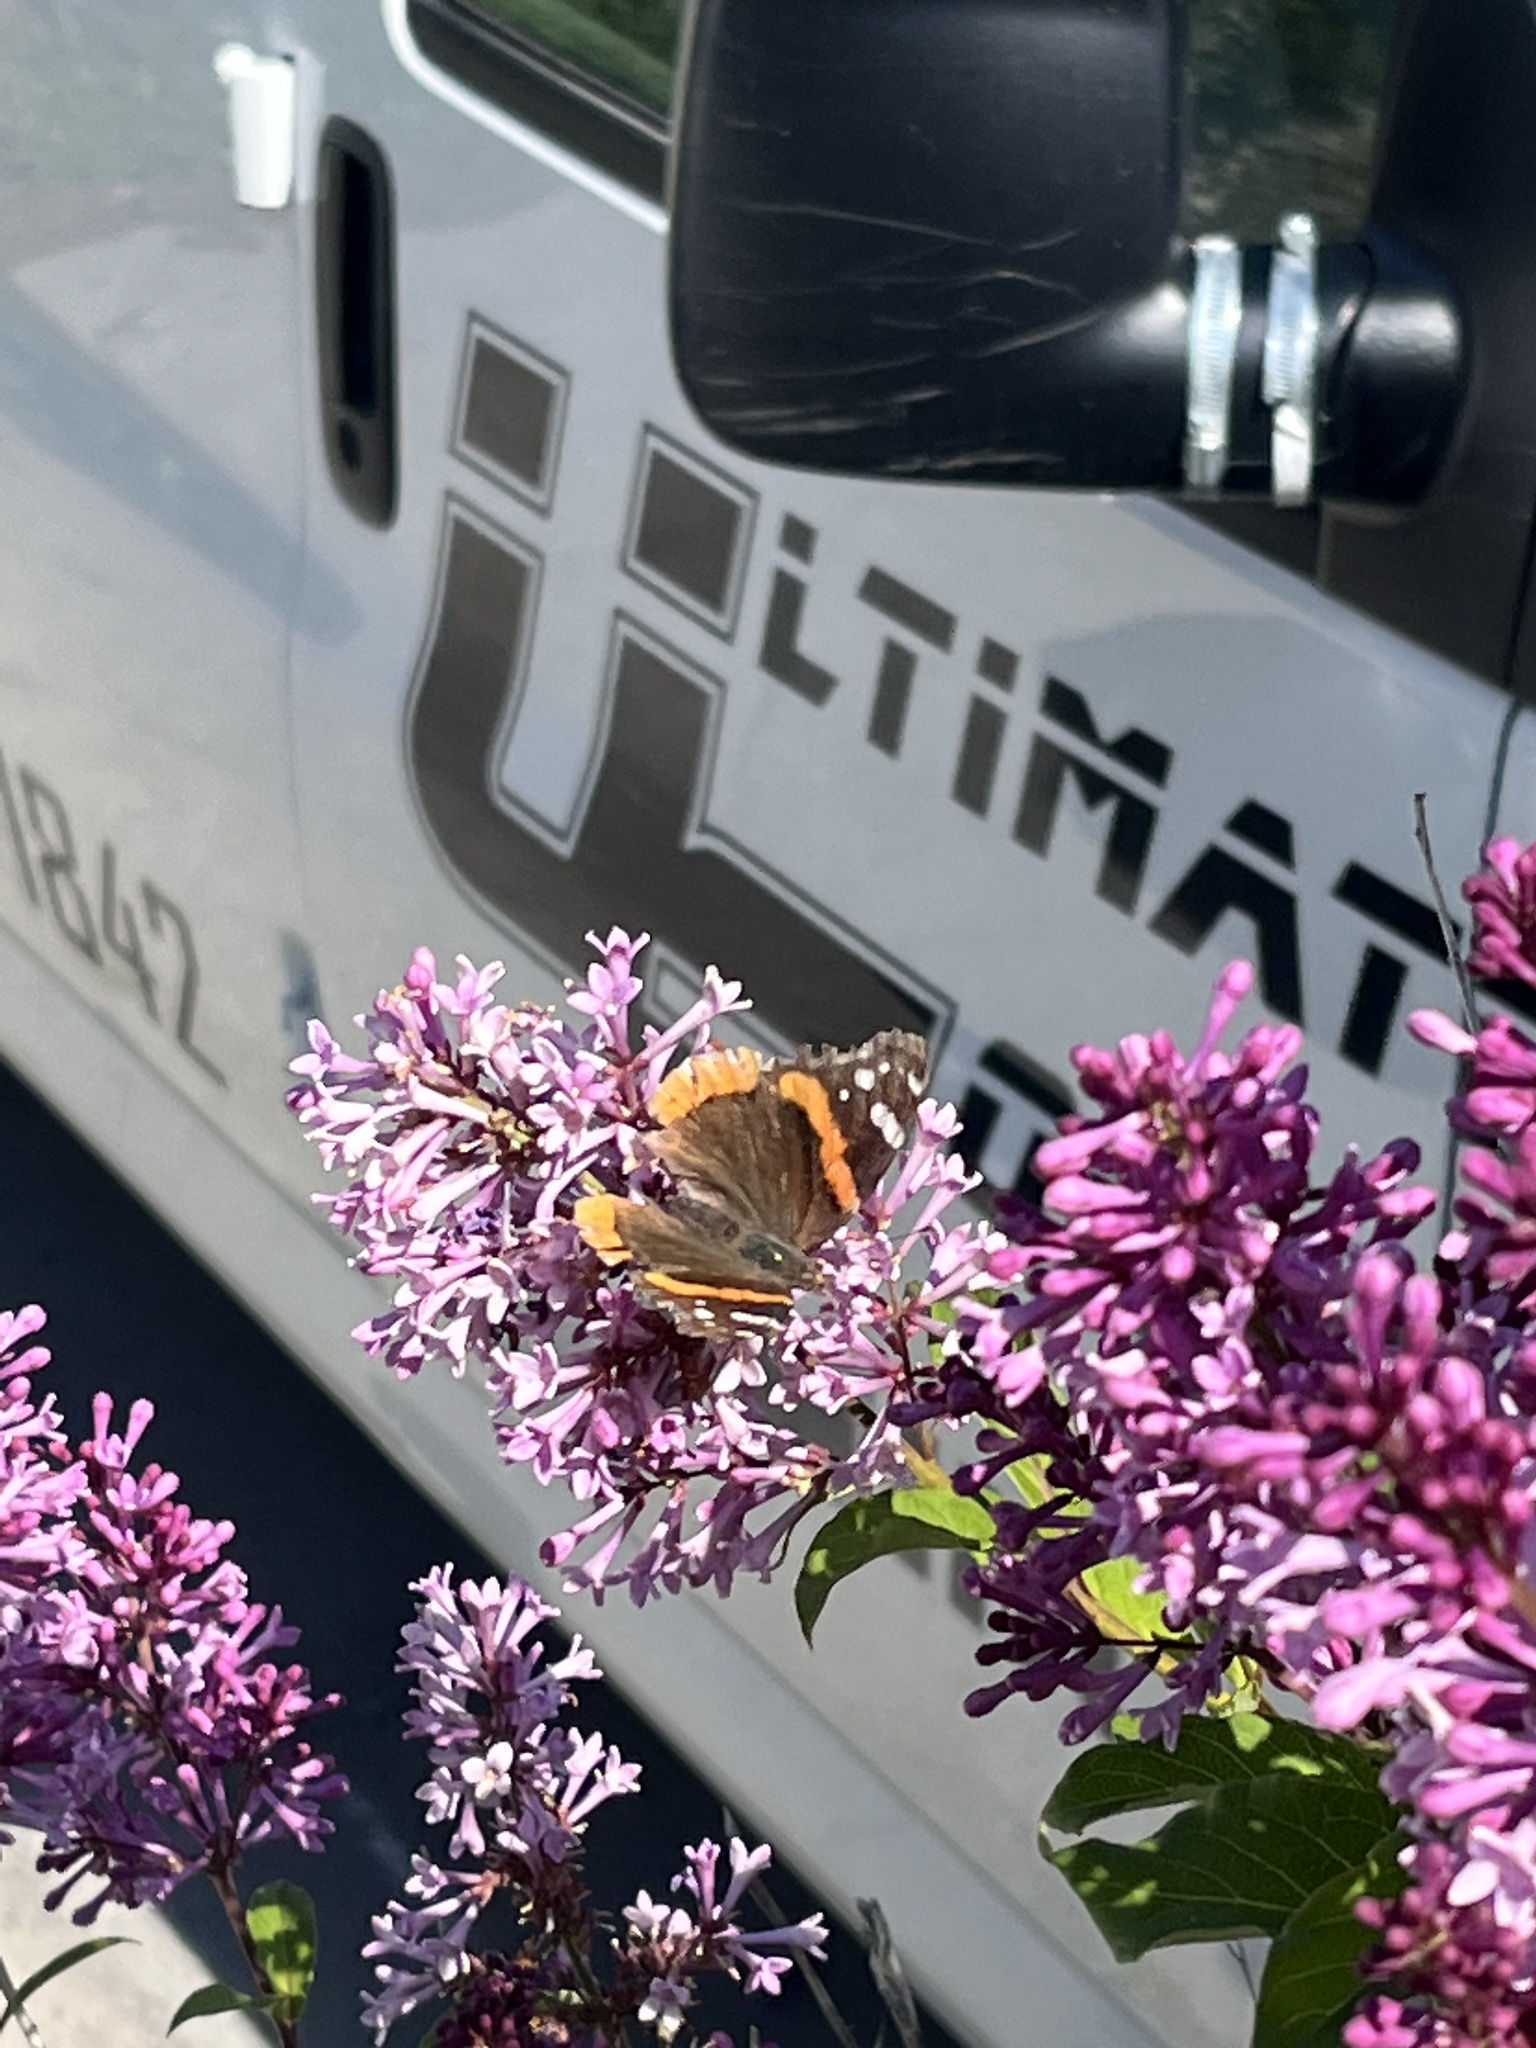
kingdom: Animalia
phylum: Arthropoda
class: Insecta
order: Lepidoptera
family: Nymphalidae
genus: Vanessa
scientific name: Vanessa atalanta
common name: Red admiral
